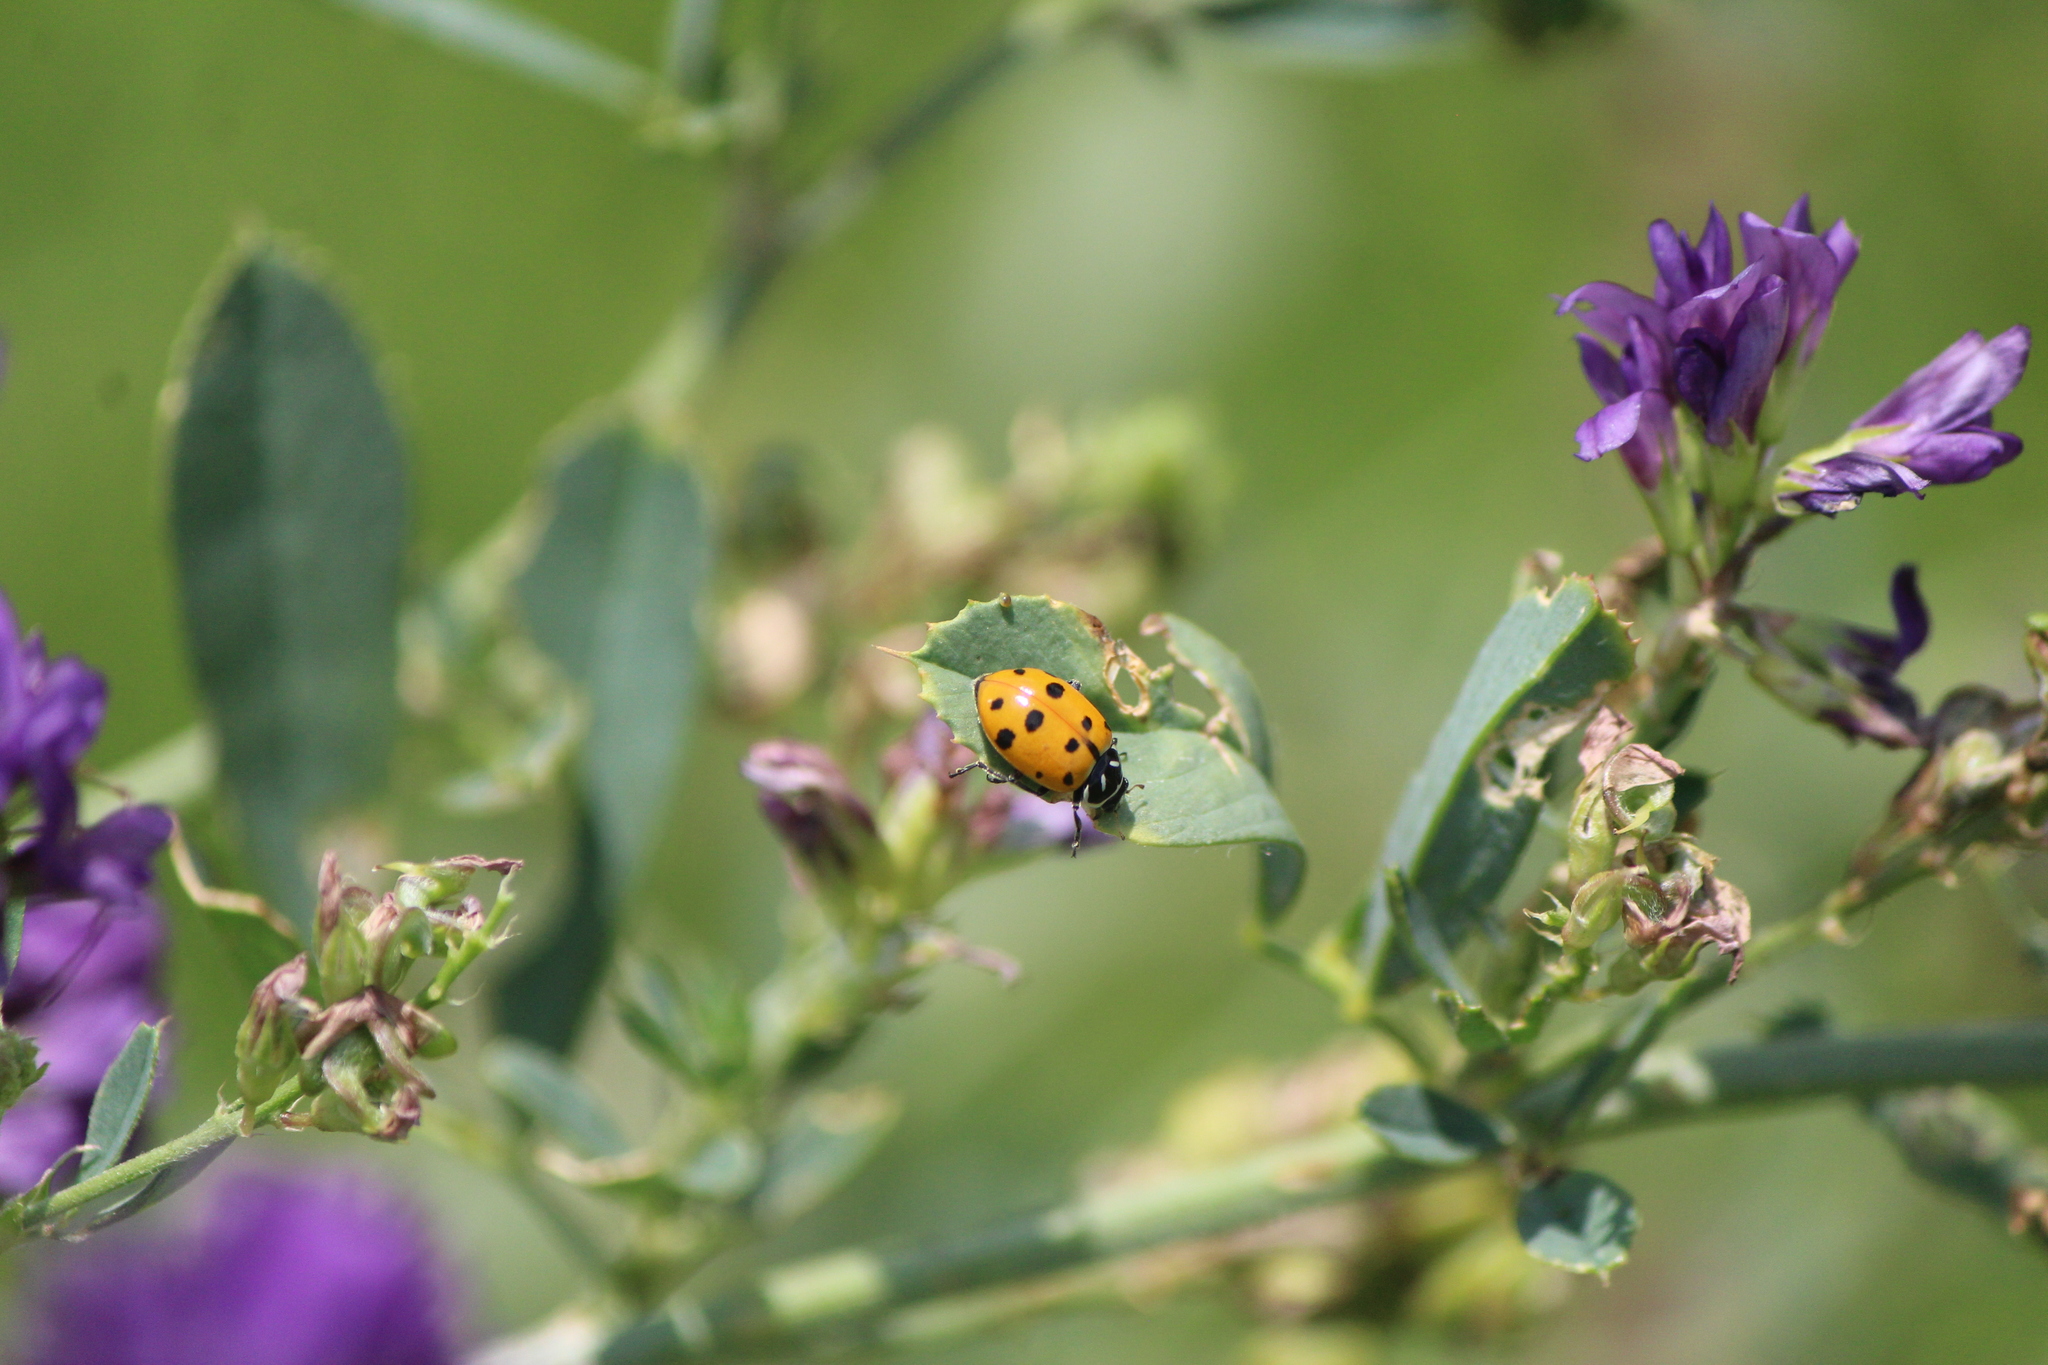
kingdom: Animalia
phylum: Arthropoda
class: Insecta
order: Coleoptera
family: Coccinellidae
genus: Hippodamia
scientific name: Hippodamia convergens
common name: Convergent lady beetle
